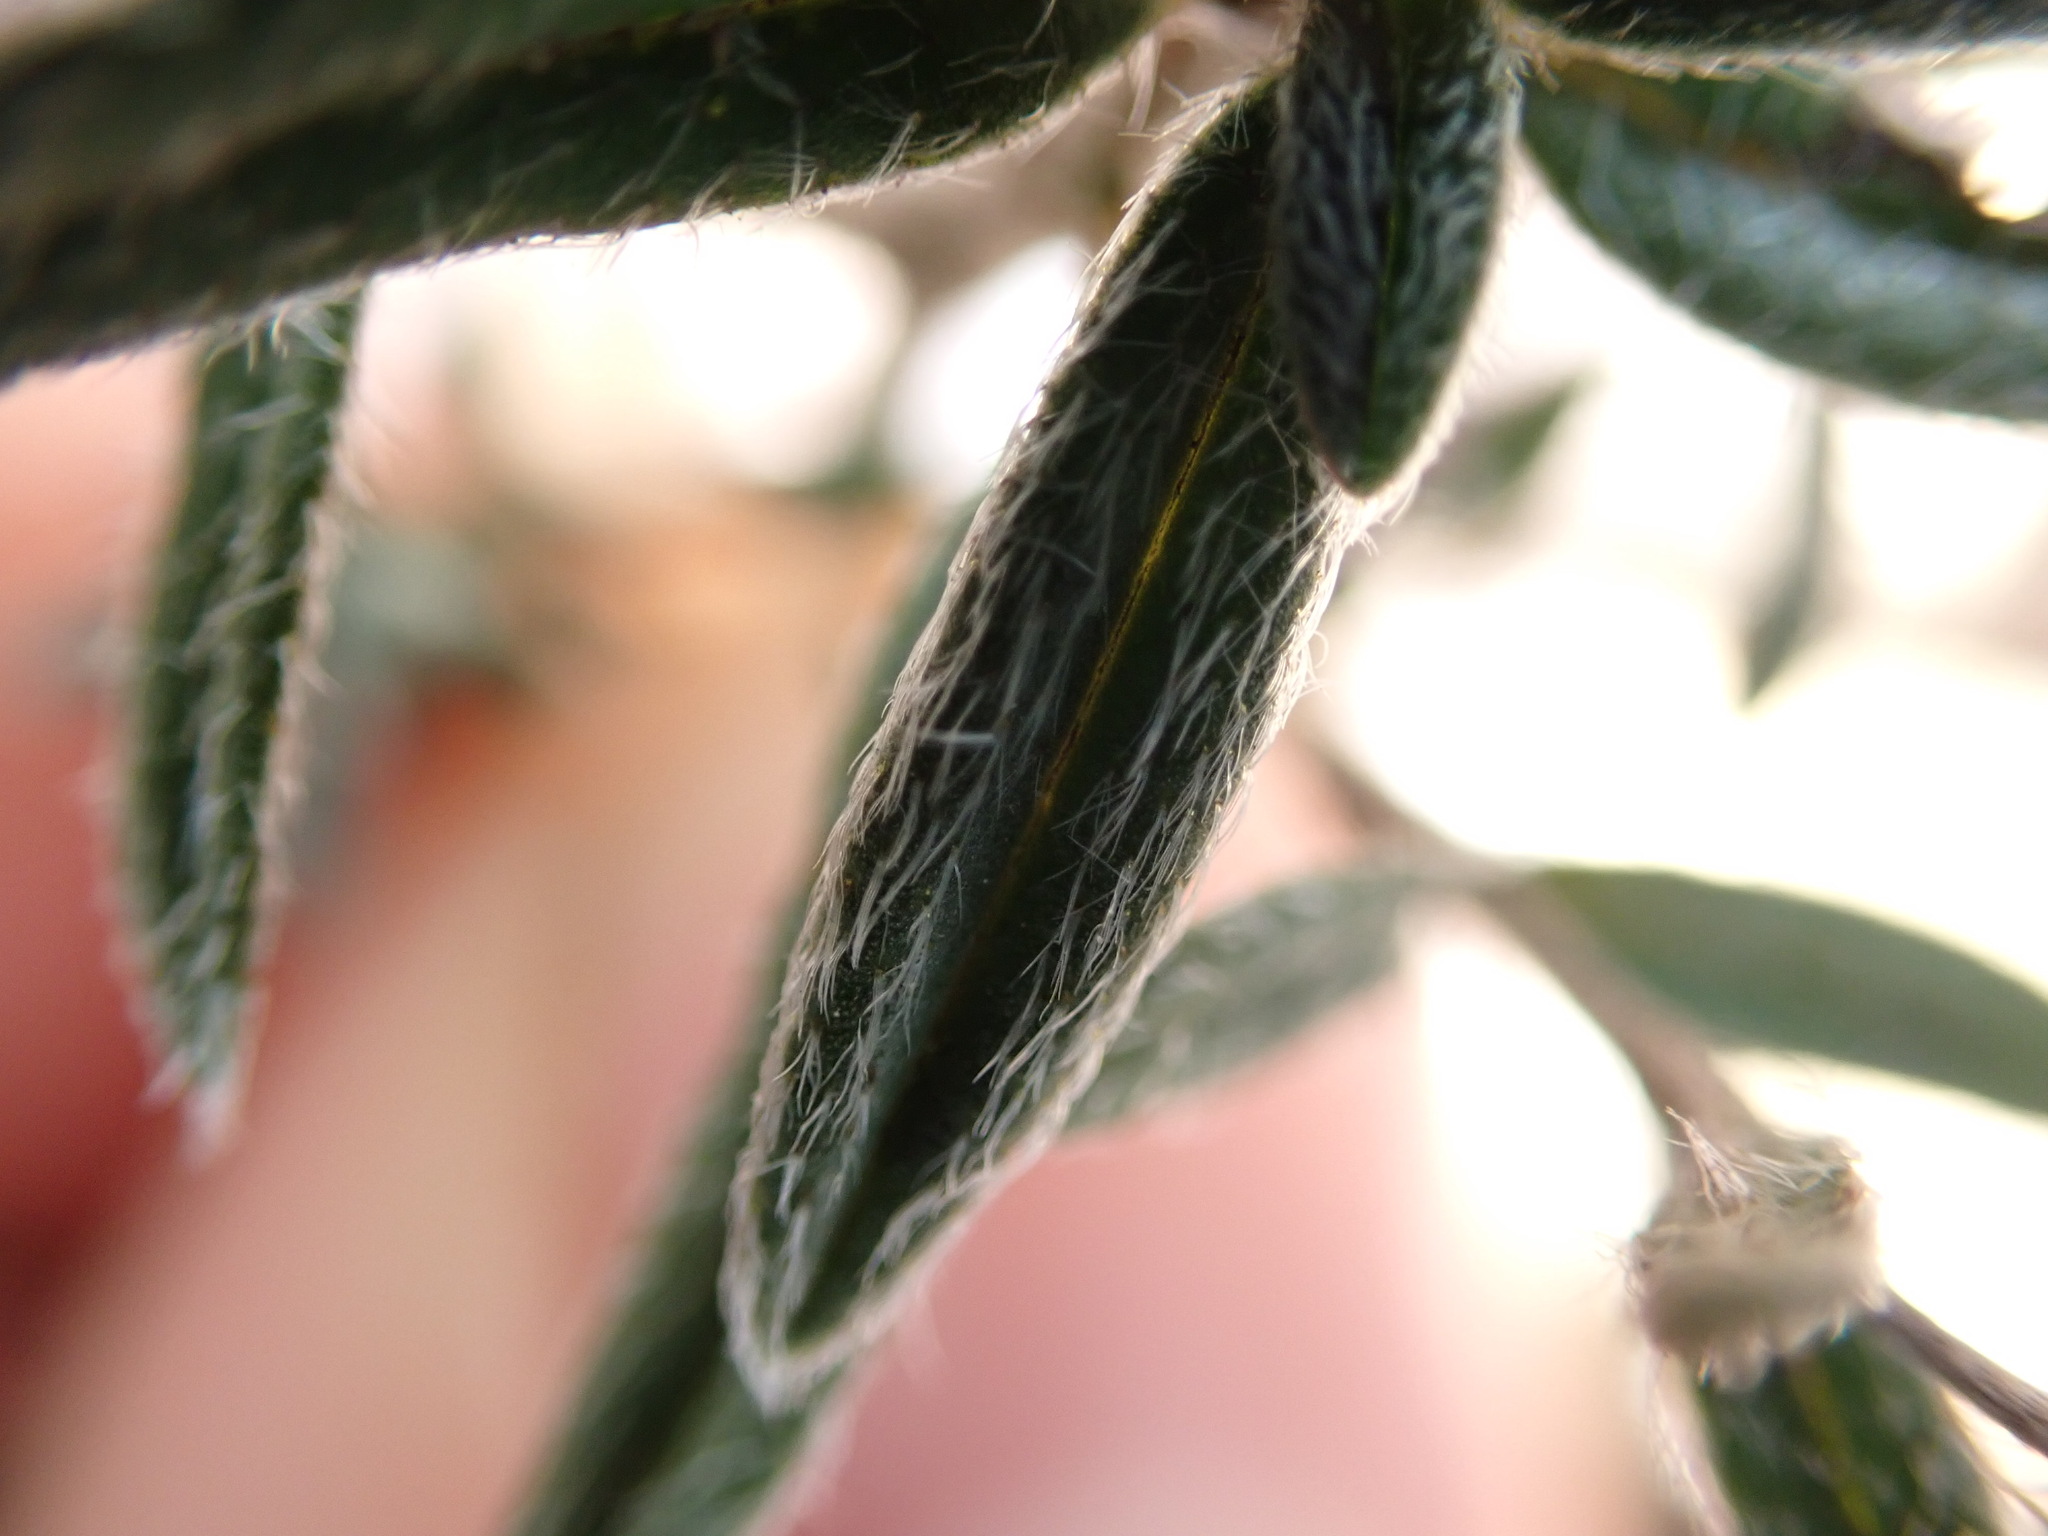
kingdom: Plantae
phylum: Tracheophyta
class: Magnoliopsida
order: Malvales
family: Cistaceae
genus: Helianthemum
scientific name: Helianthemum oelandicum
